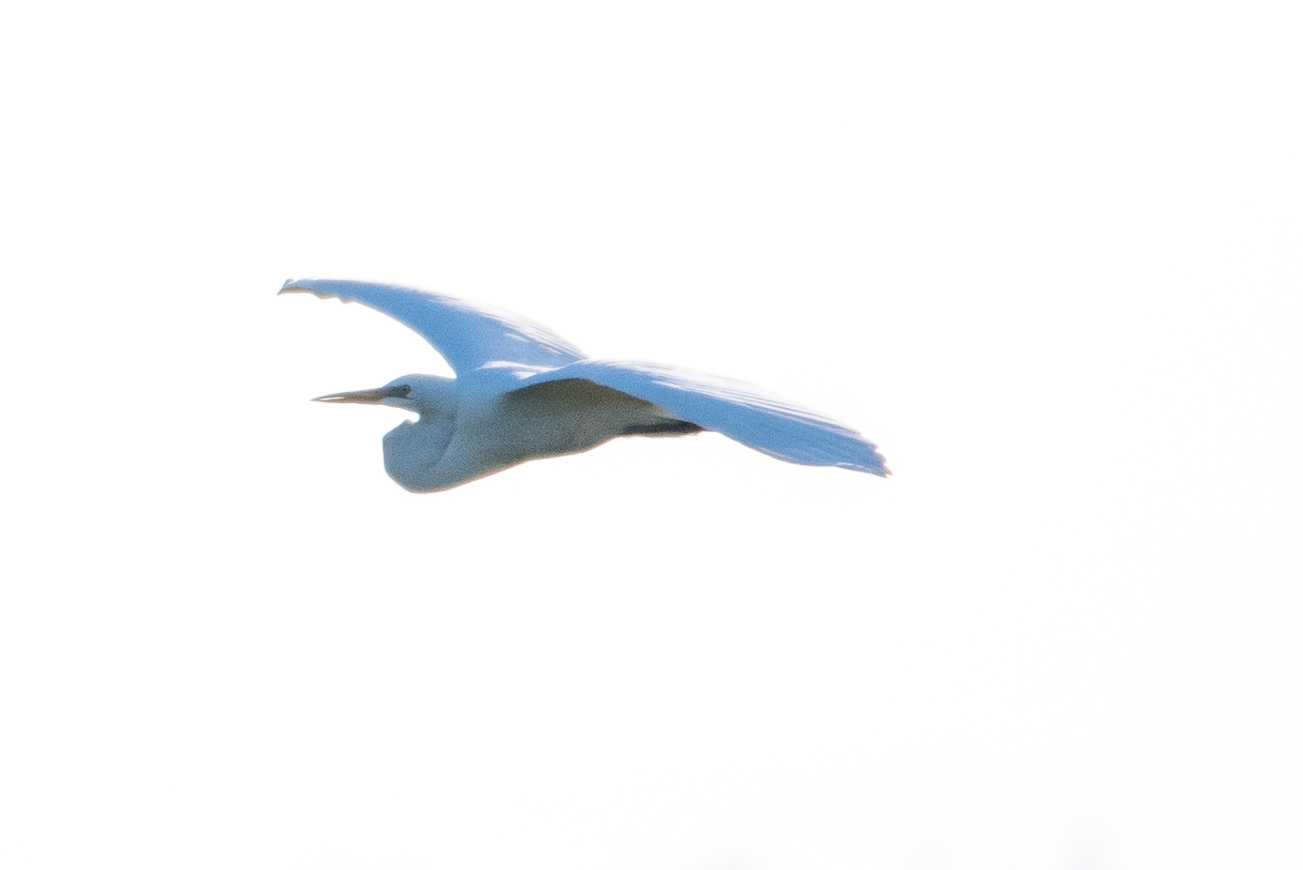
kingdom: Animalia
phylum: Chordata
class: Aves
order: Pelecaniformes
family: Ardeidae
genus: Ardea
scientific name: Ardea alba
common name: Great egret
